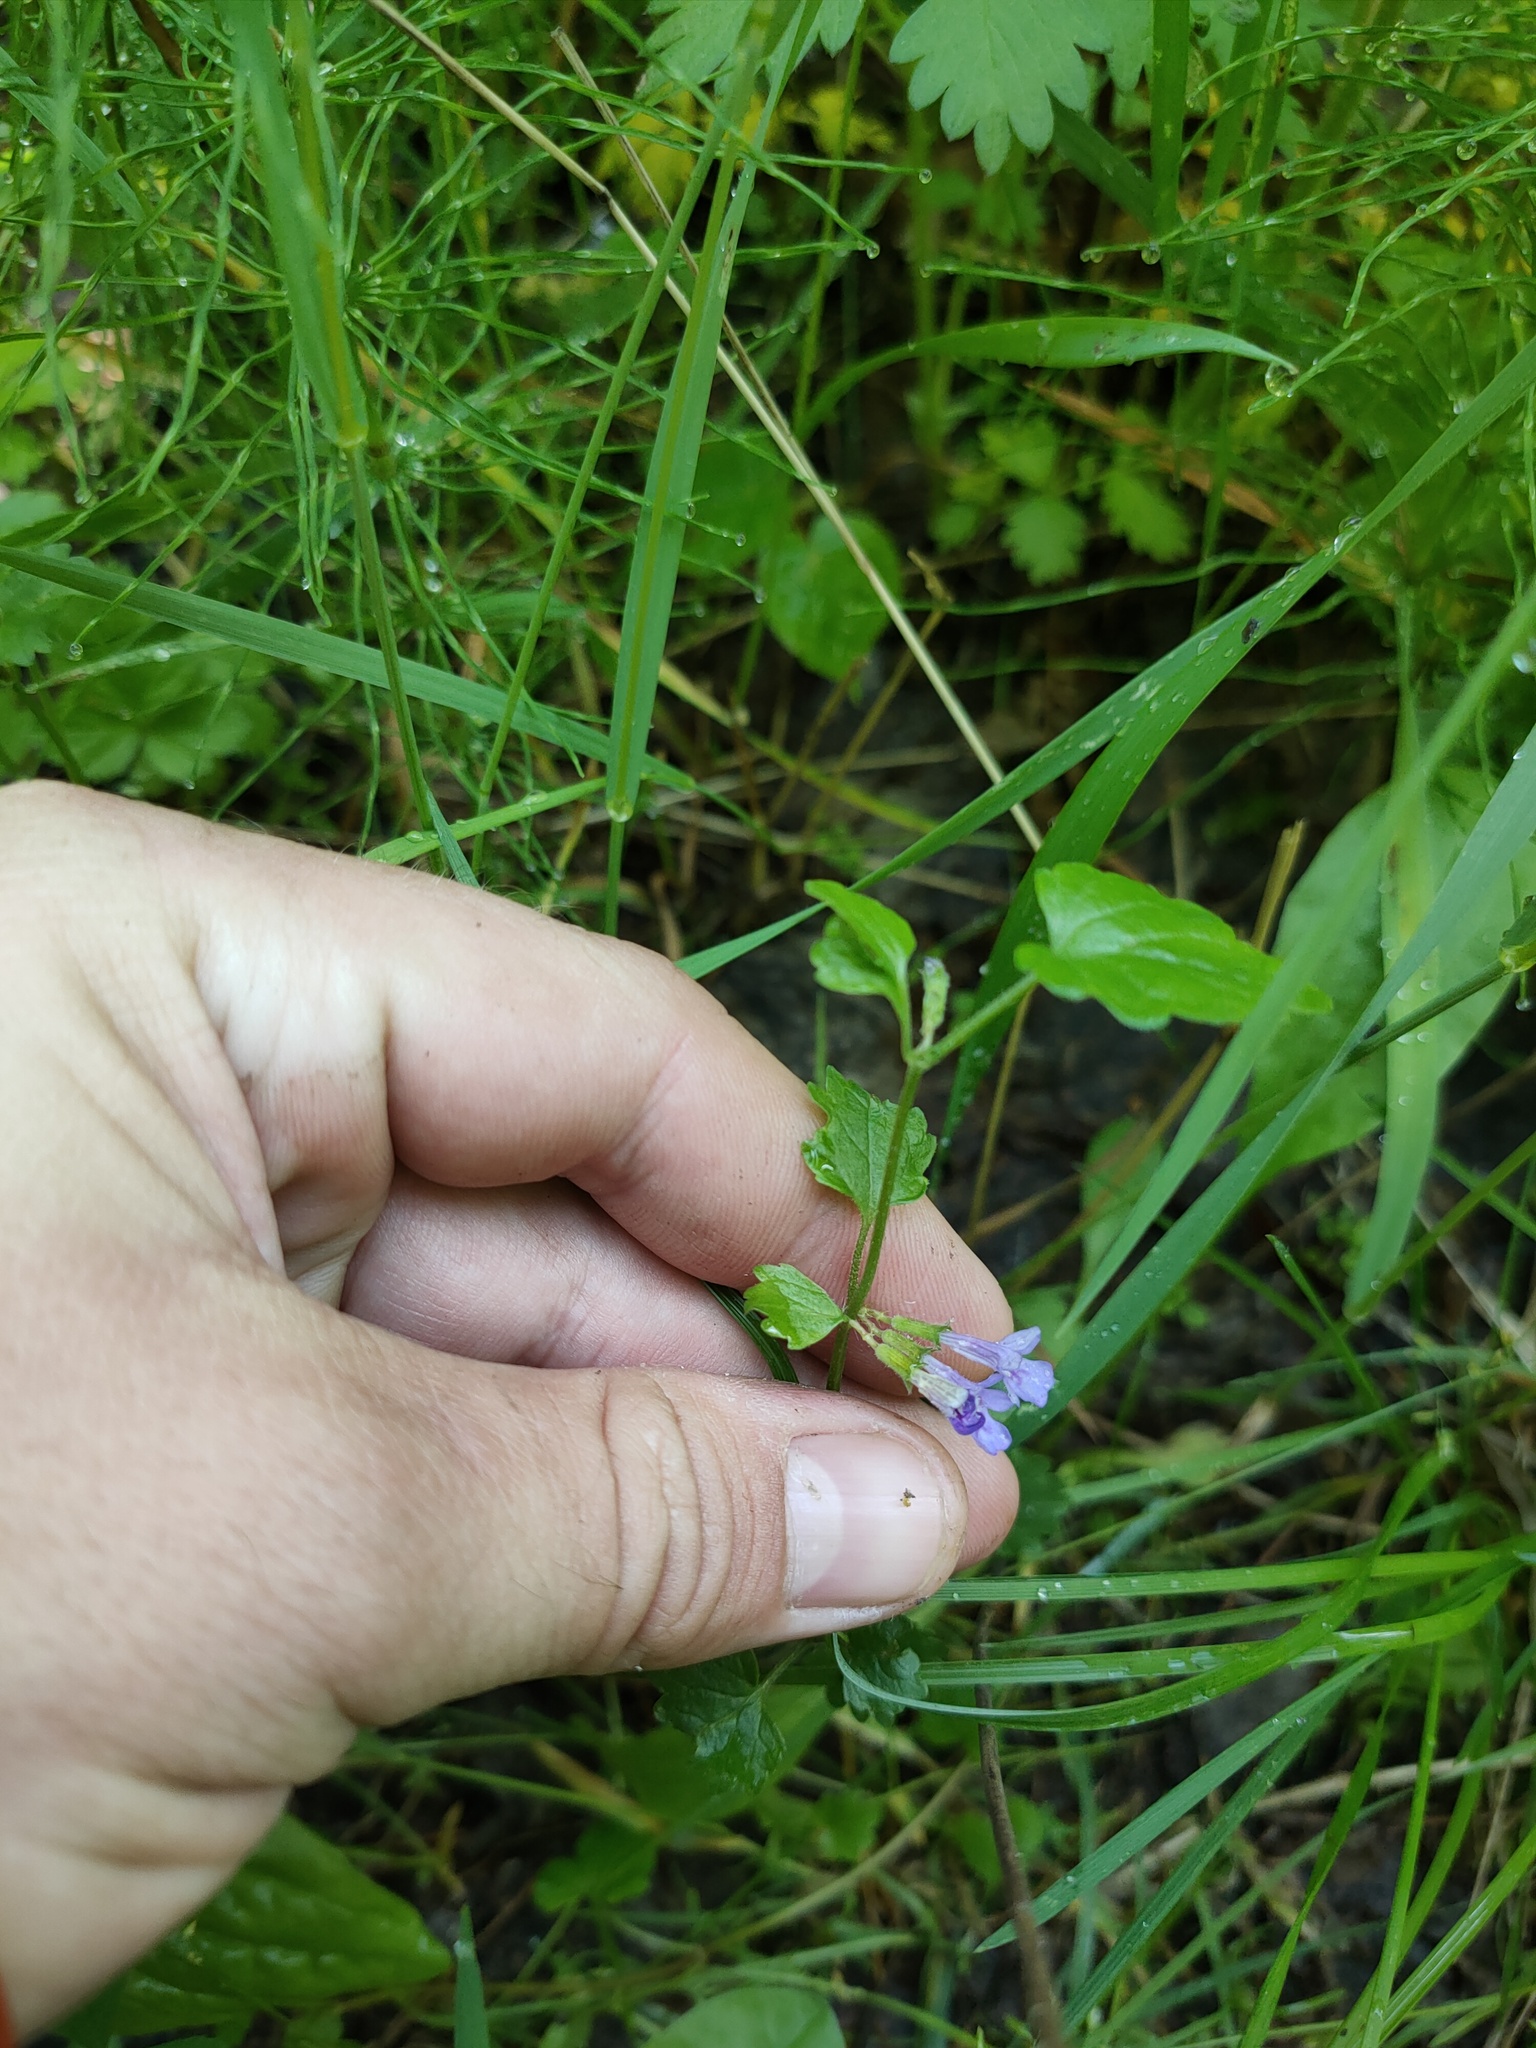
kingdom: Plantae
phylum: Tracheophyta
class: Magnoliopsida
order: Lamiales
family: Lamiaceae
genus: Glechoma
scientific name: Glechoma hederacea
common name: Ground ivy
